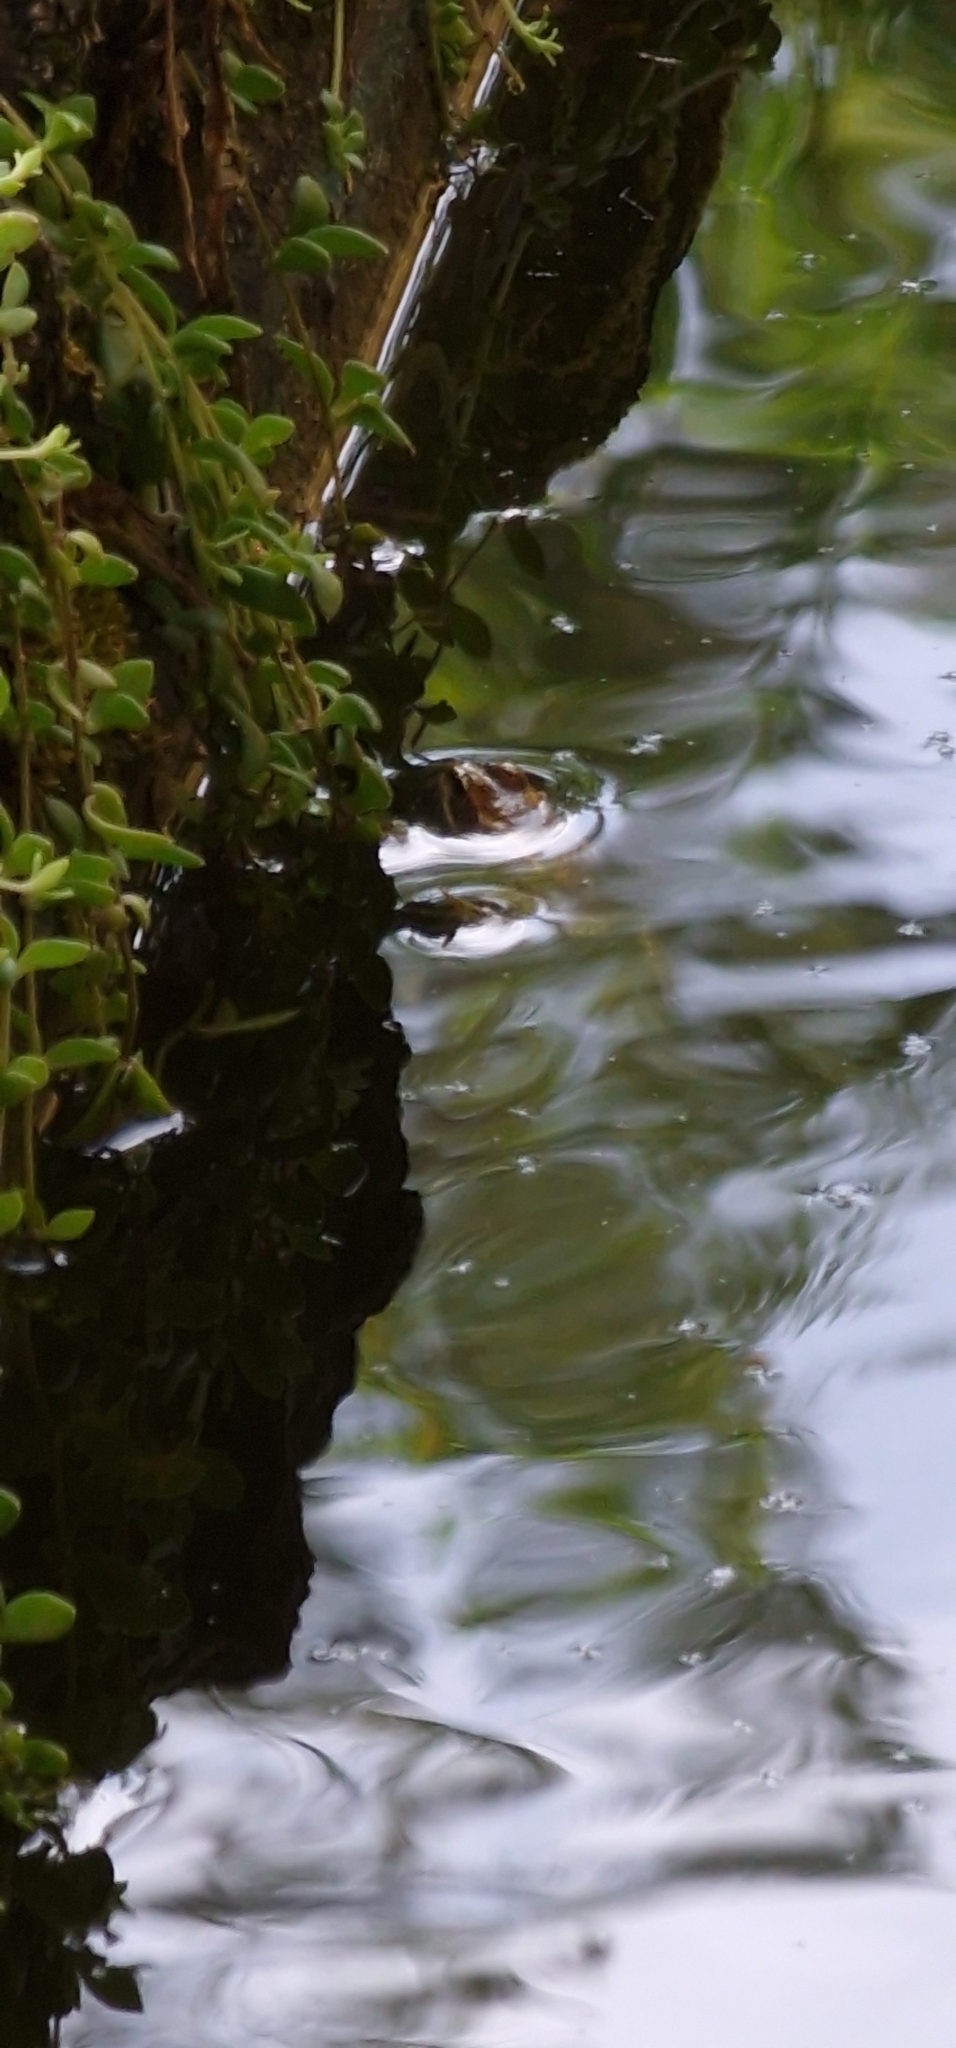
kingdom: Animalia
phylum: Chordata
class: Amphibia
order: Anura
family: Ranidae
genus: Pelophylax
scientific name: Pelophylax perezi
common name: Perez's frog
